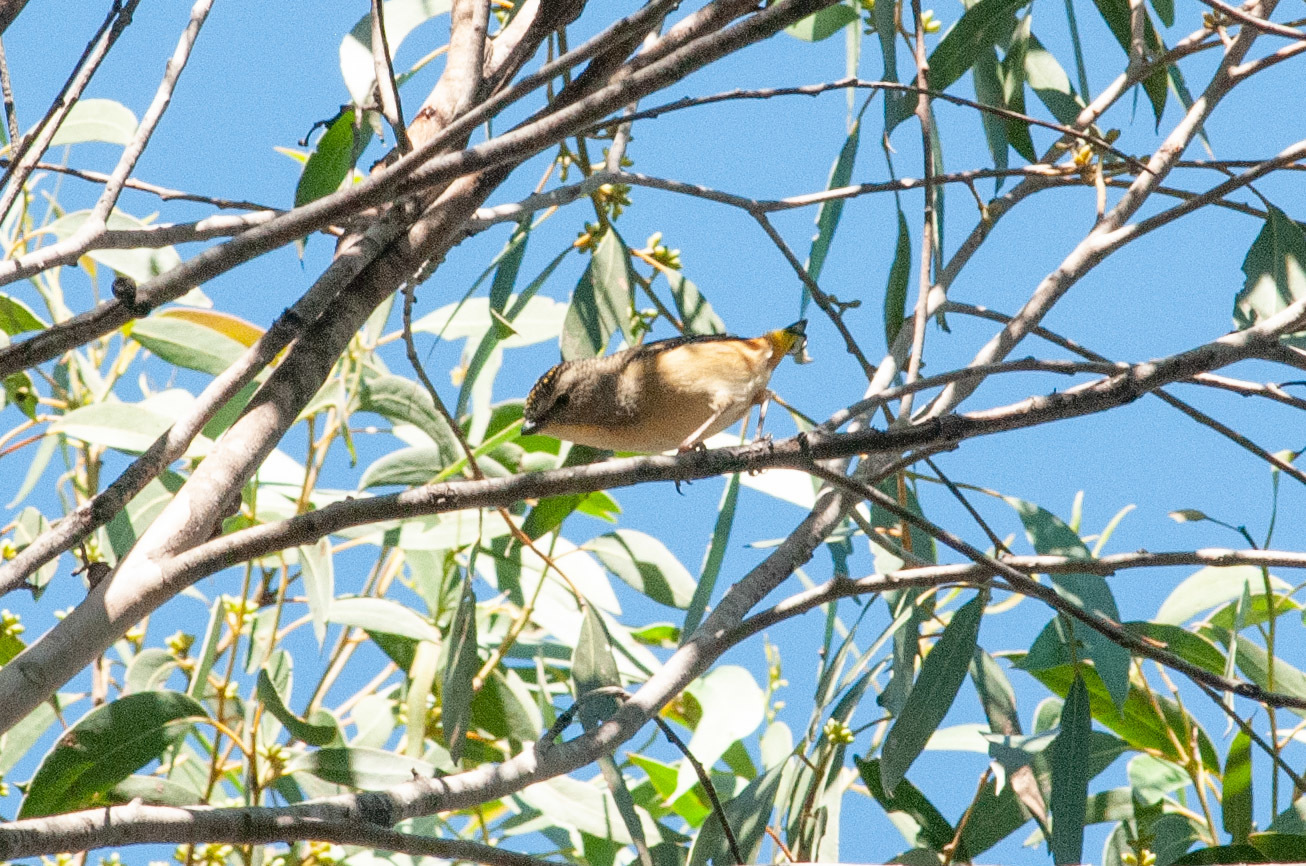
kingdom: Animalia
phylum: Chordata
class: Aves
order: Passeriformes
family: Pardalotidae
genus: Pardalotus
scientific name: Pardalotus punctatus
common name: Spotted pardalote
